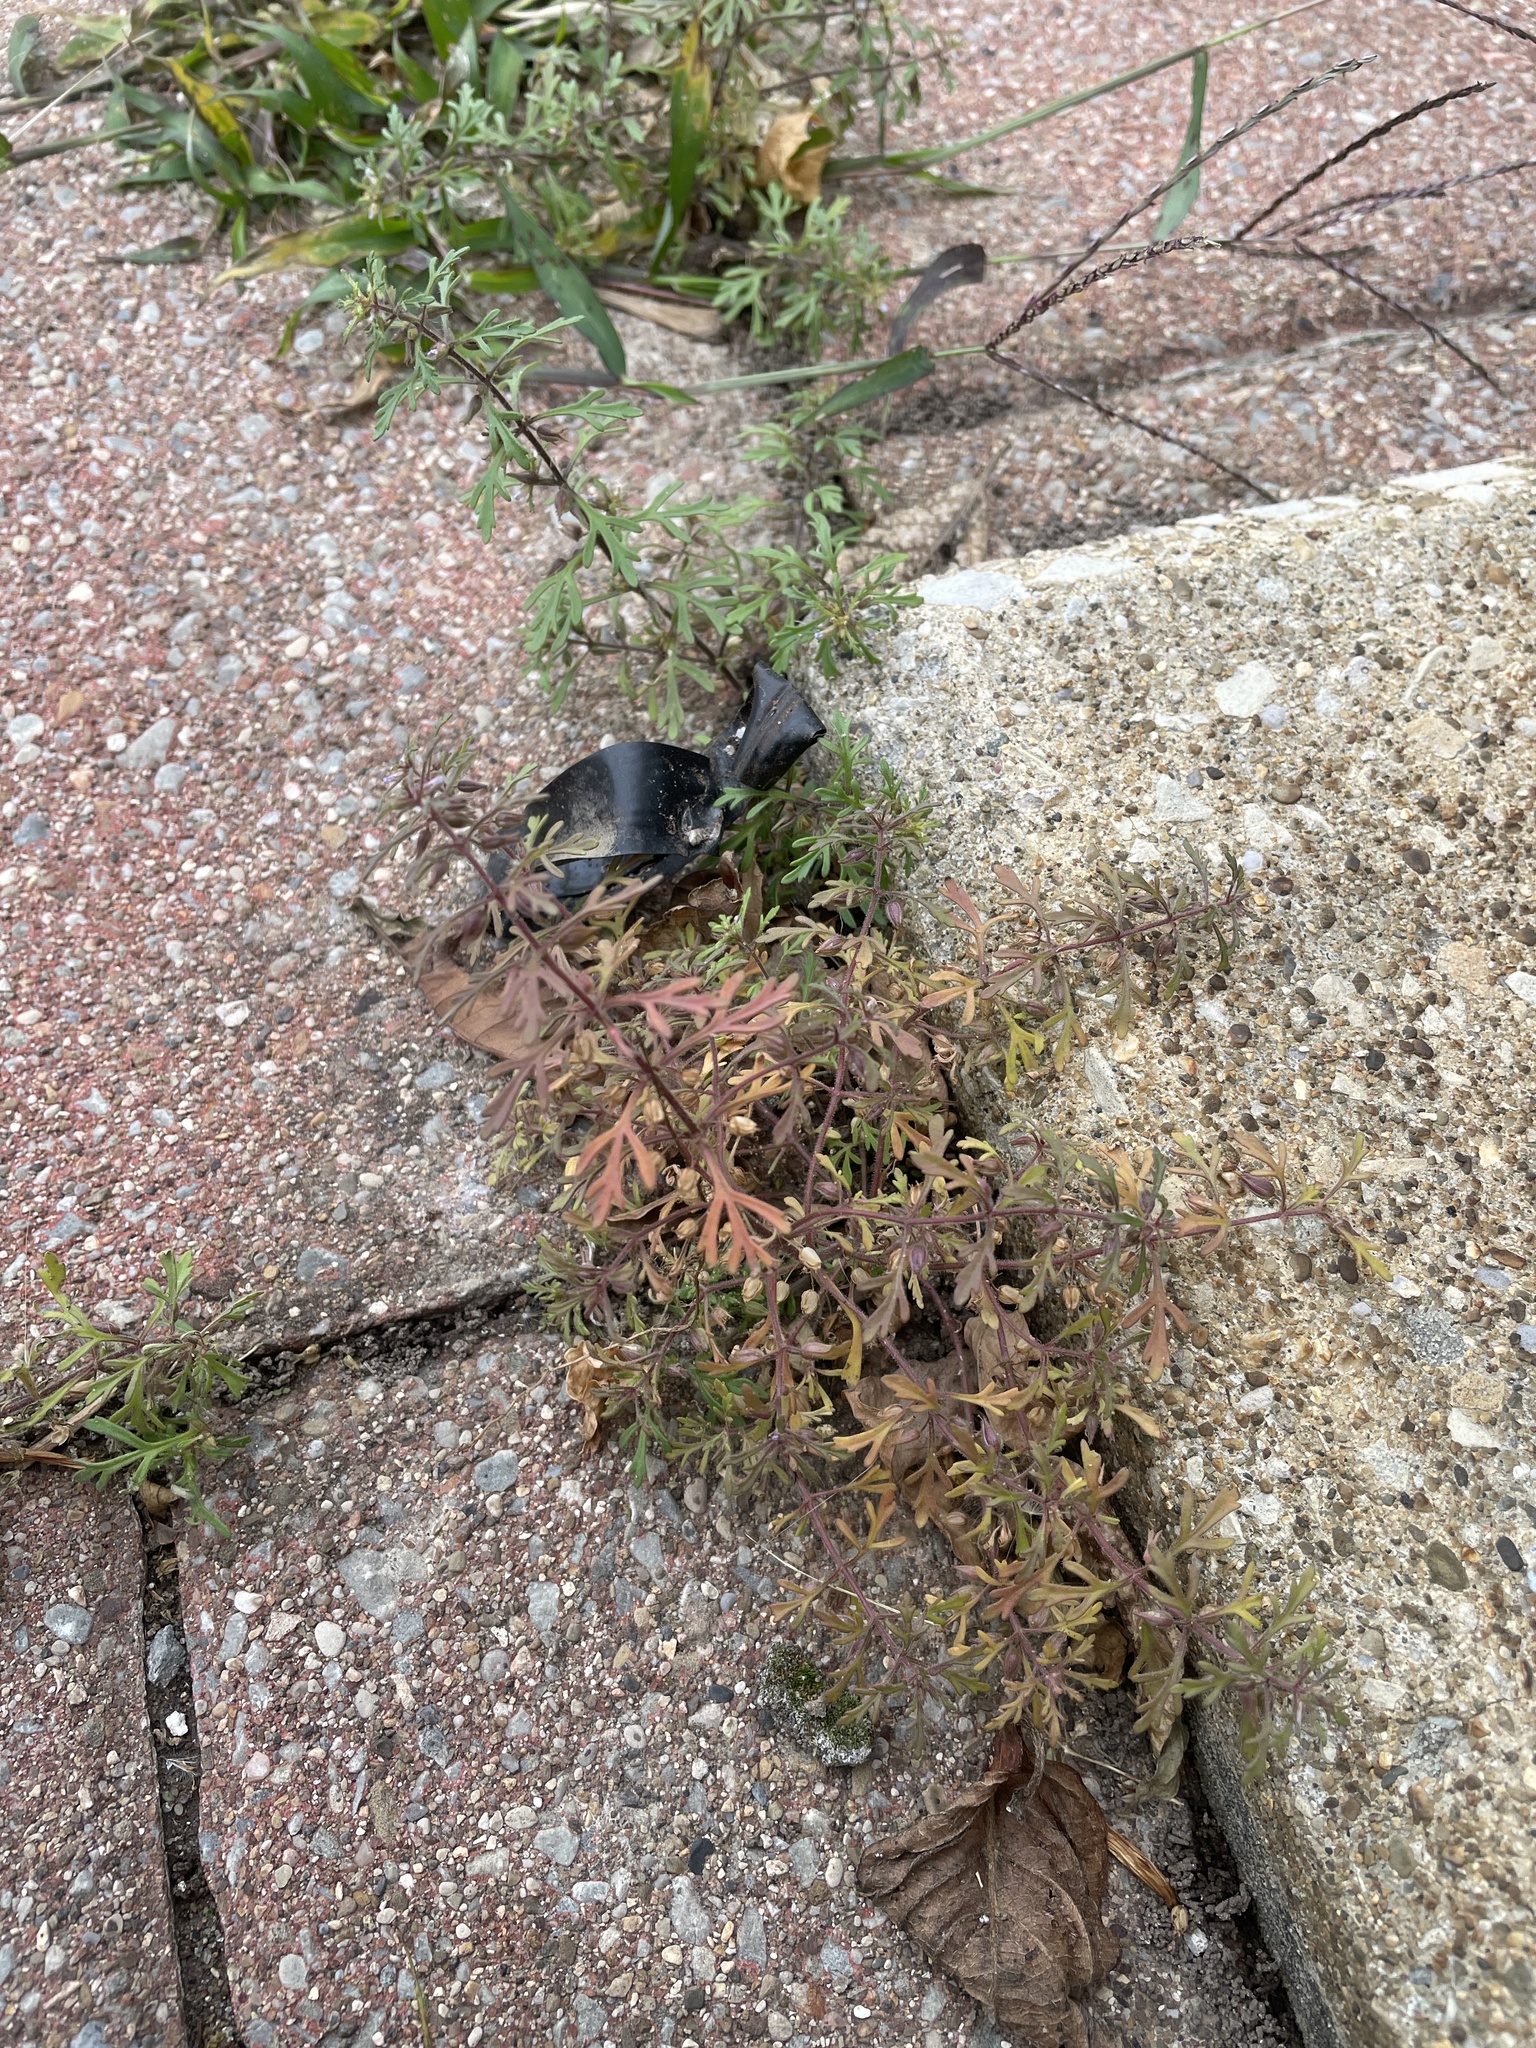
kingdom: Plantae
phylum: Tracheophyta
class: Magnoliopsida
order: Lamiales
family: Plantaginaceae
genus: Leucospora
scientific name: Leucospora multifida
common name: Narrow-leaf paleseed
